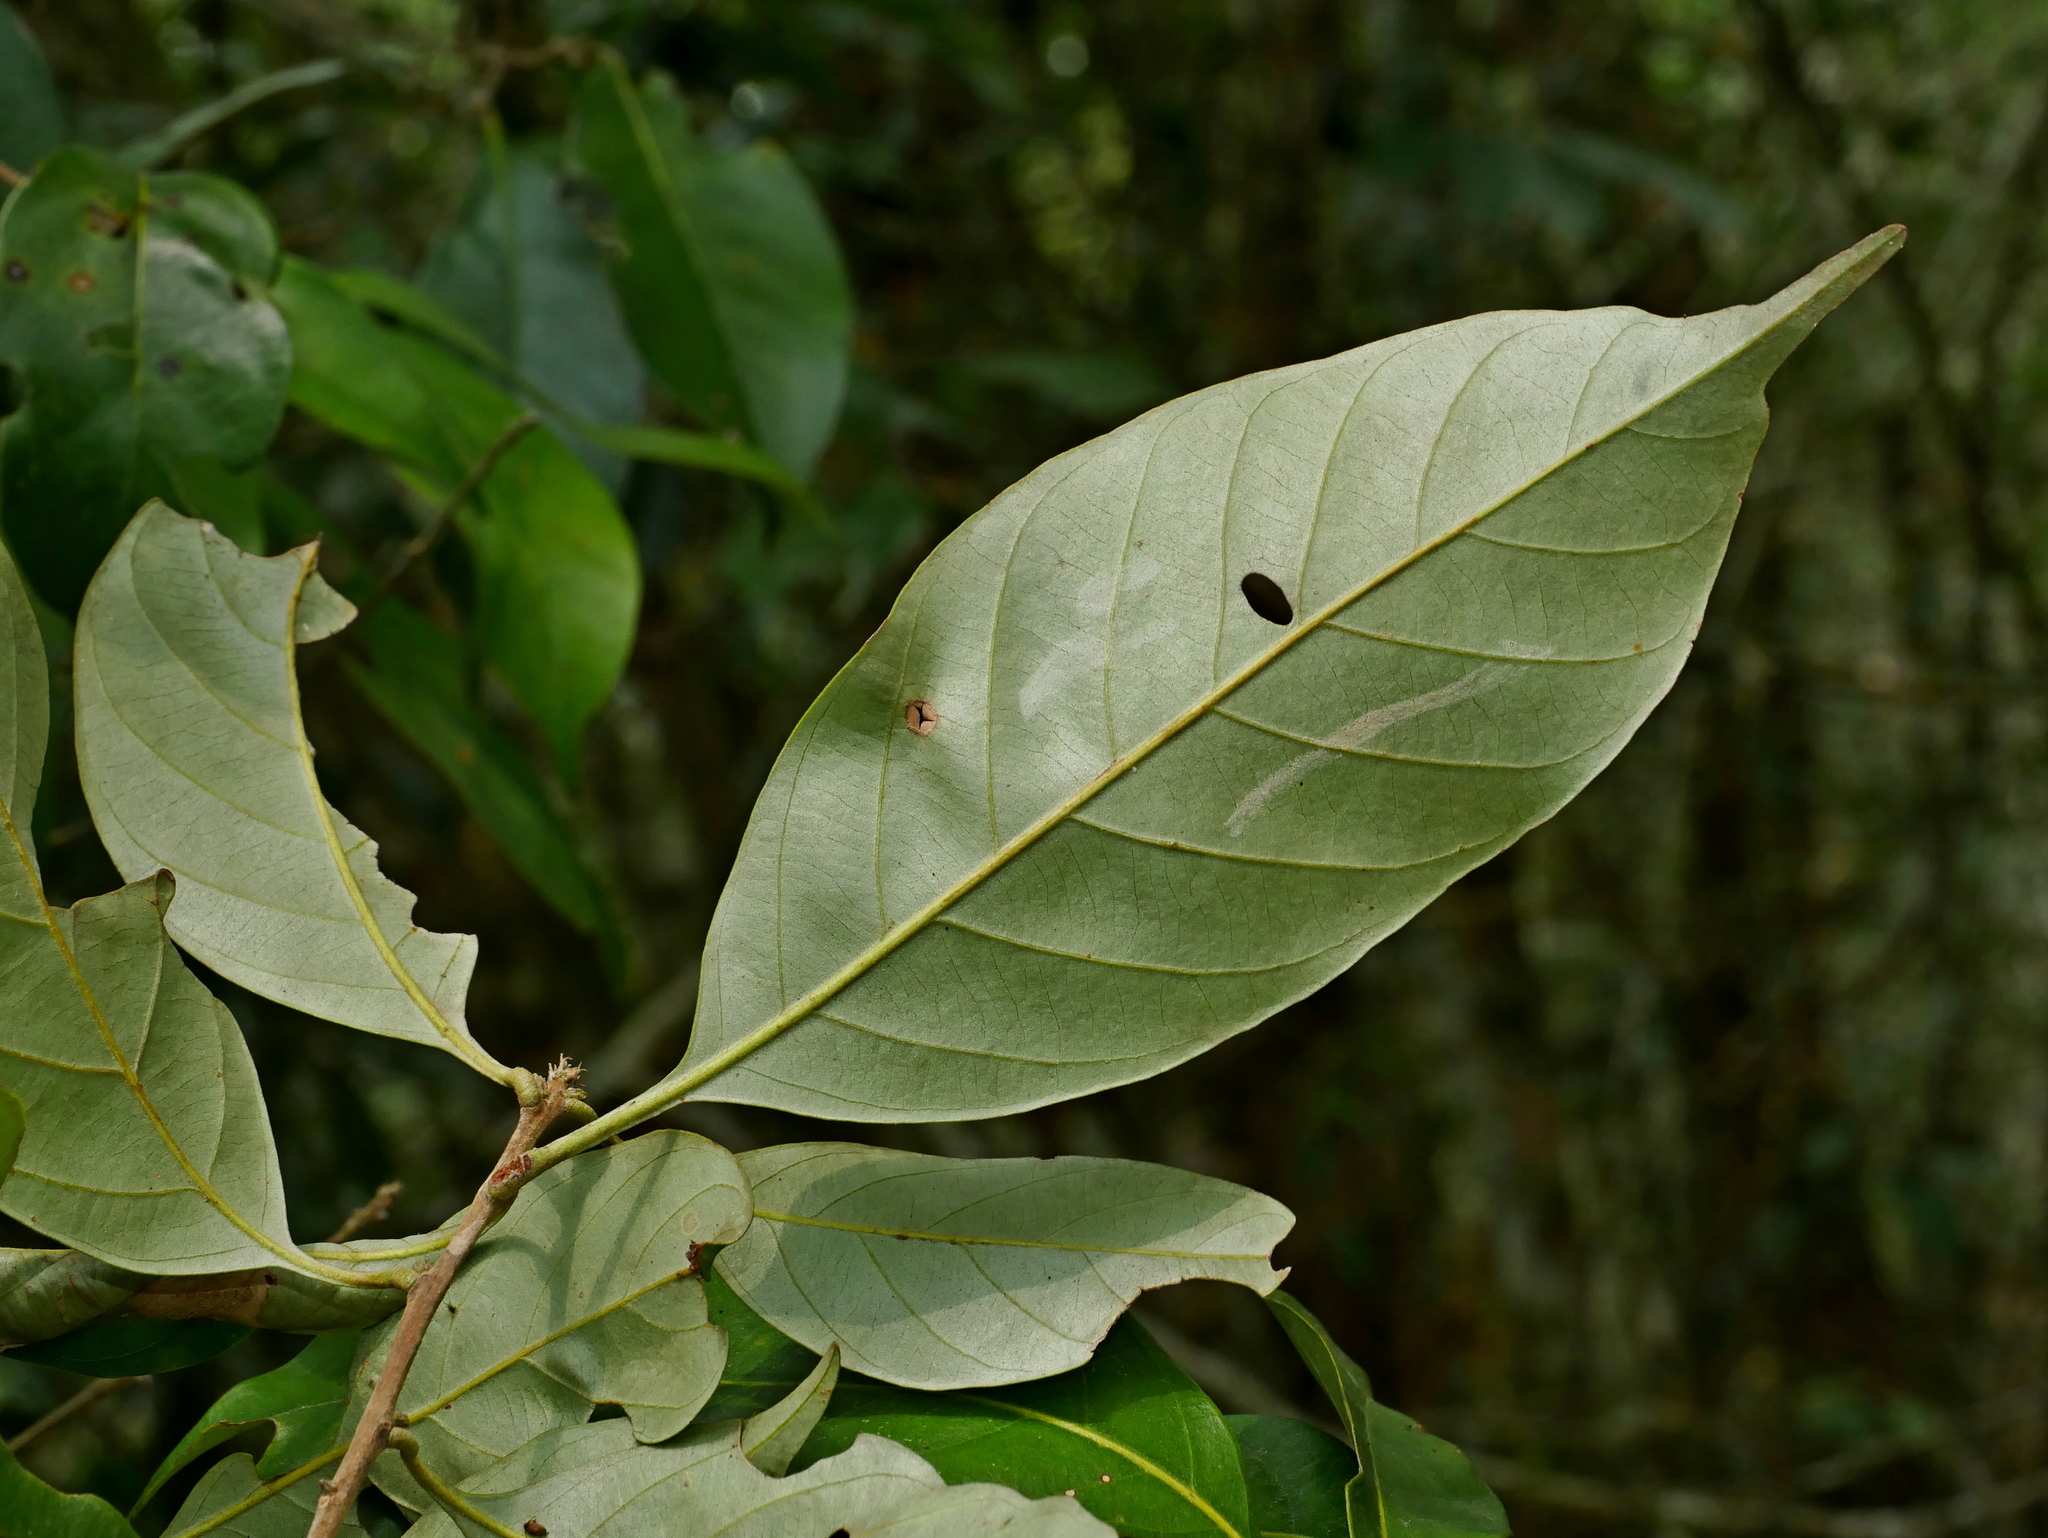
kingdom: Plantae
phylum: Tracheophyta
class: Magnoliopsida
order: Fagales
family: Fagaceae
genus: Lithocarpus
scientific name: Lithocarpus glaber
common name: Japanese-oak
